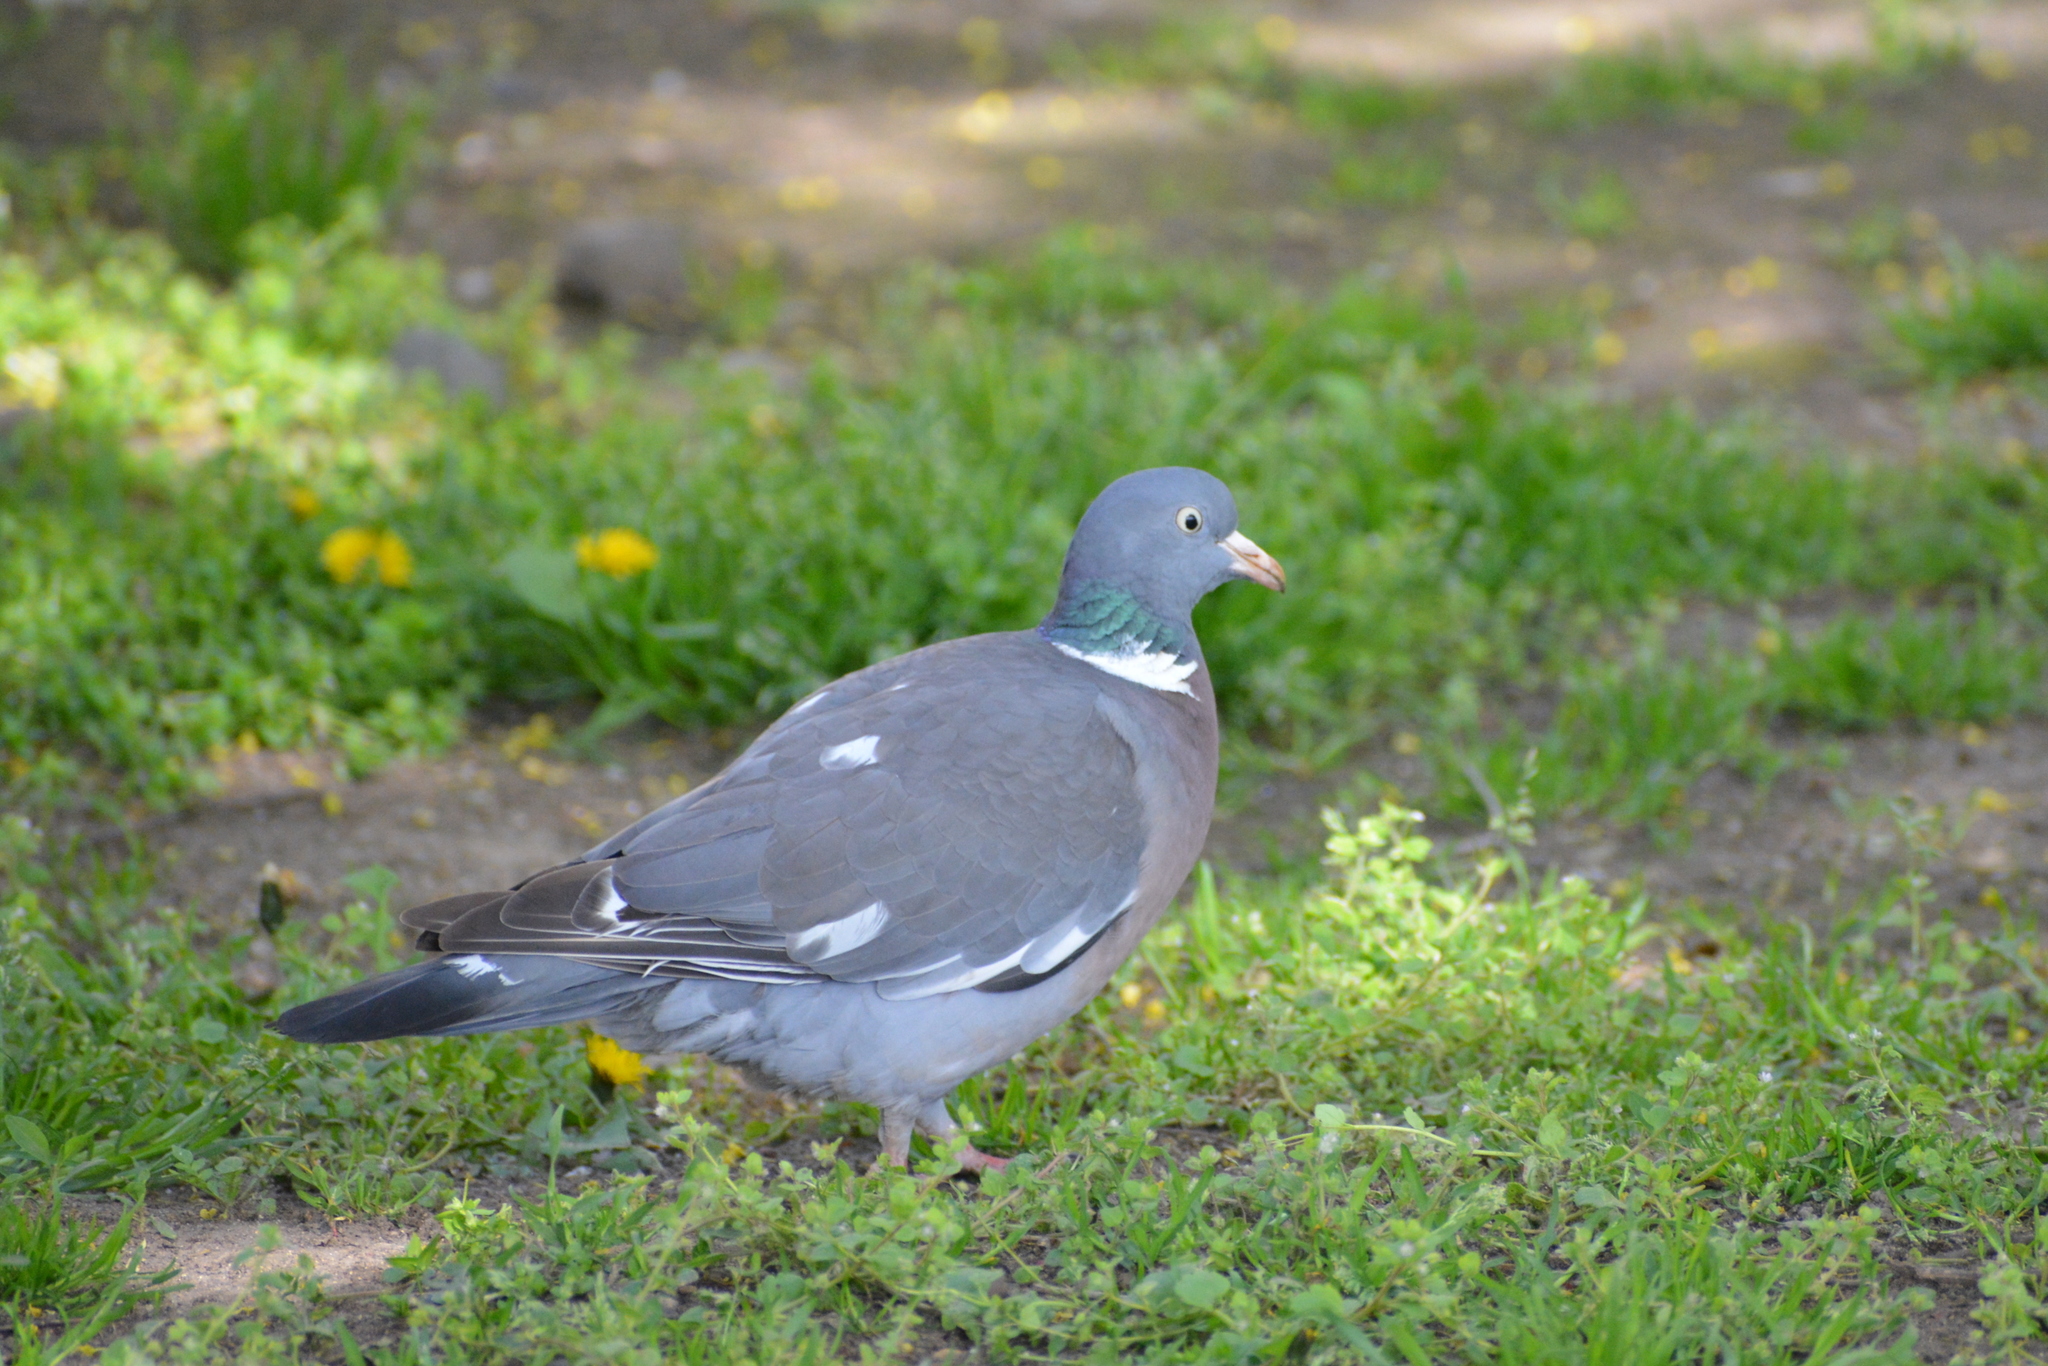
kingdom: Animalia
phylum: Chordata
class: Aves
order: Columbiformes
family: Columbidae
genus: Columba
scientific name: Columba palumbus
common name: Common wood pigeon
